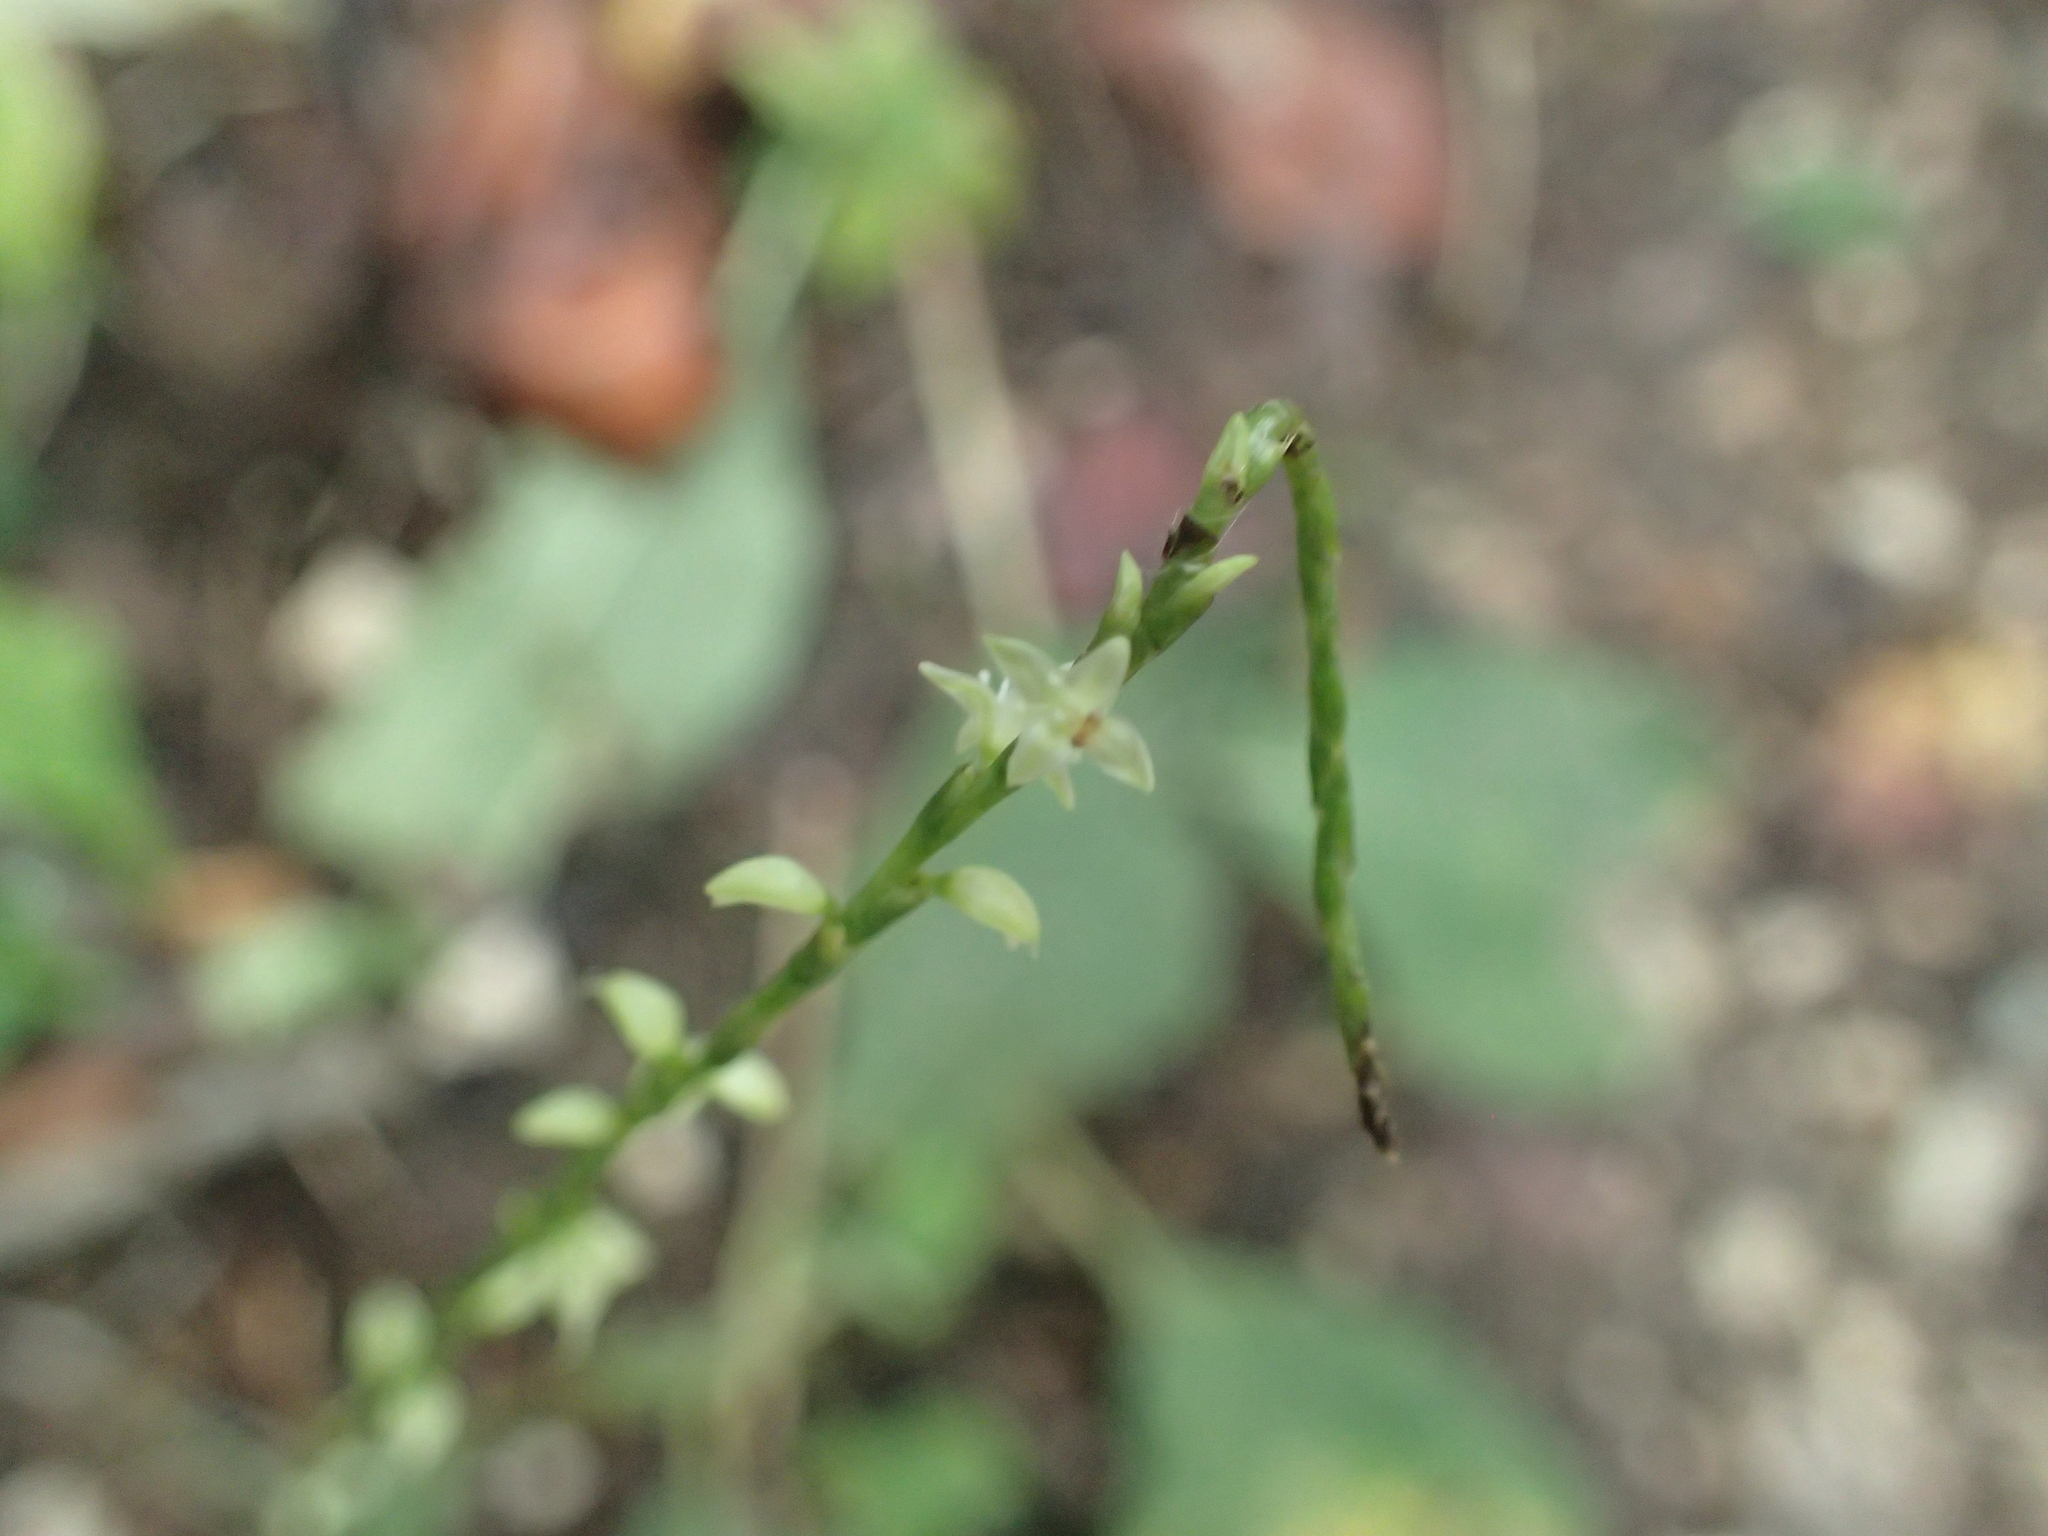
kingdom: Plantae
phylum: Tracheophyta
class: Magnoliopsida
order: Caryophyllales
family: Polygonaceae
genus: Persicaria
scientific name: Persicaria virginiana
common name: Jumpseed
